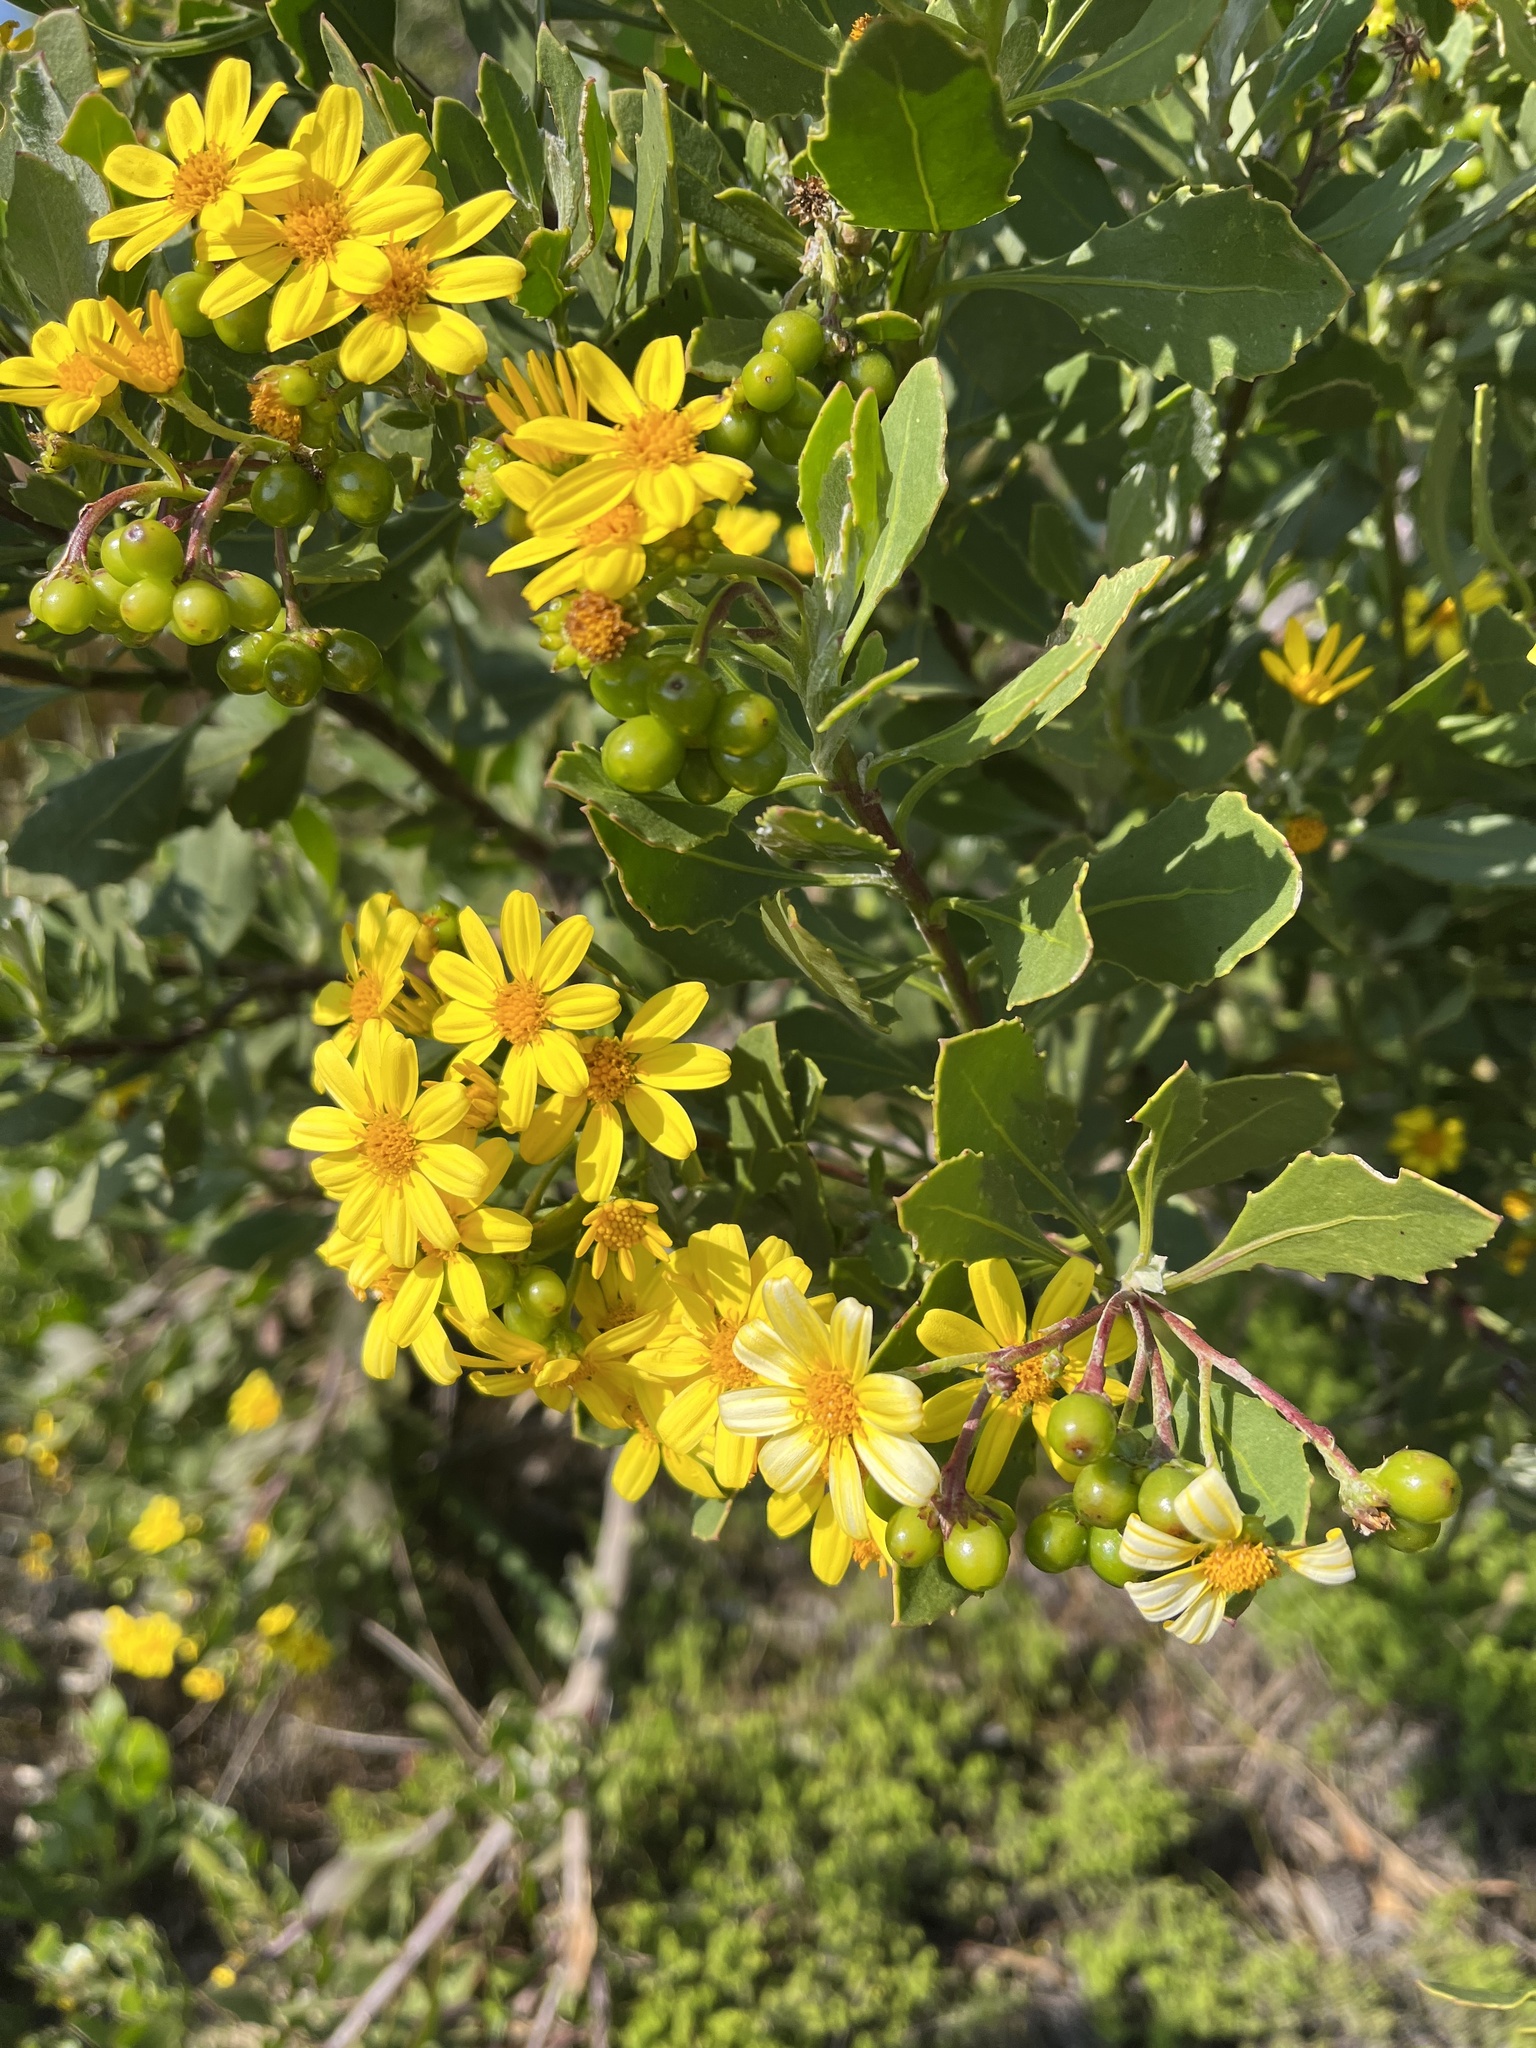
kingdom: Plantae
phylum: Tracheophyta
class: Magnoliopsida
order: Asterales
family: Asteraceae
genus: Osteospermum
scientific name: Osteospermum moniliferum
